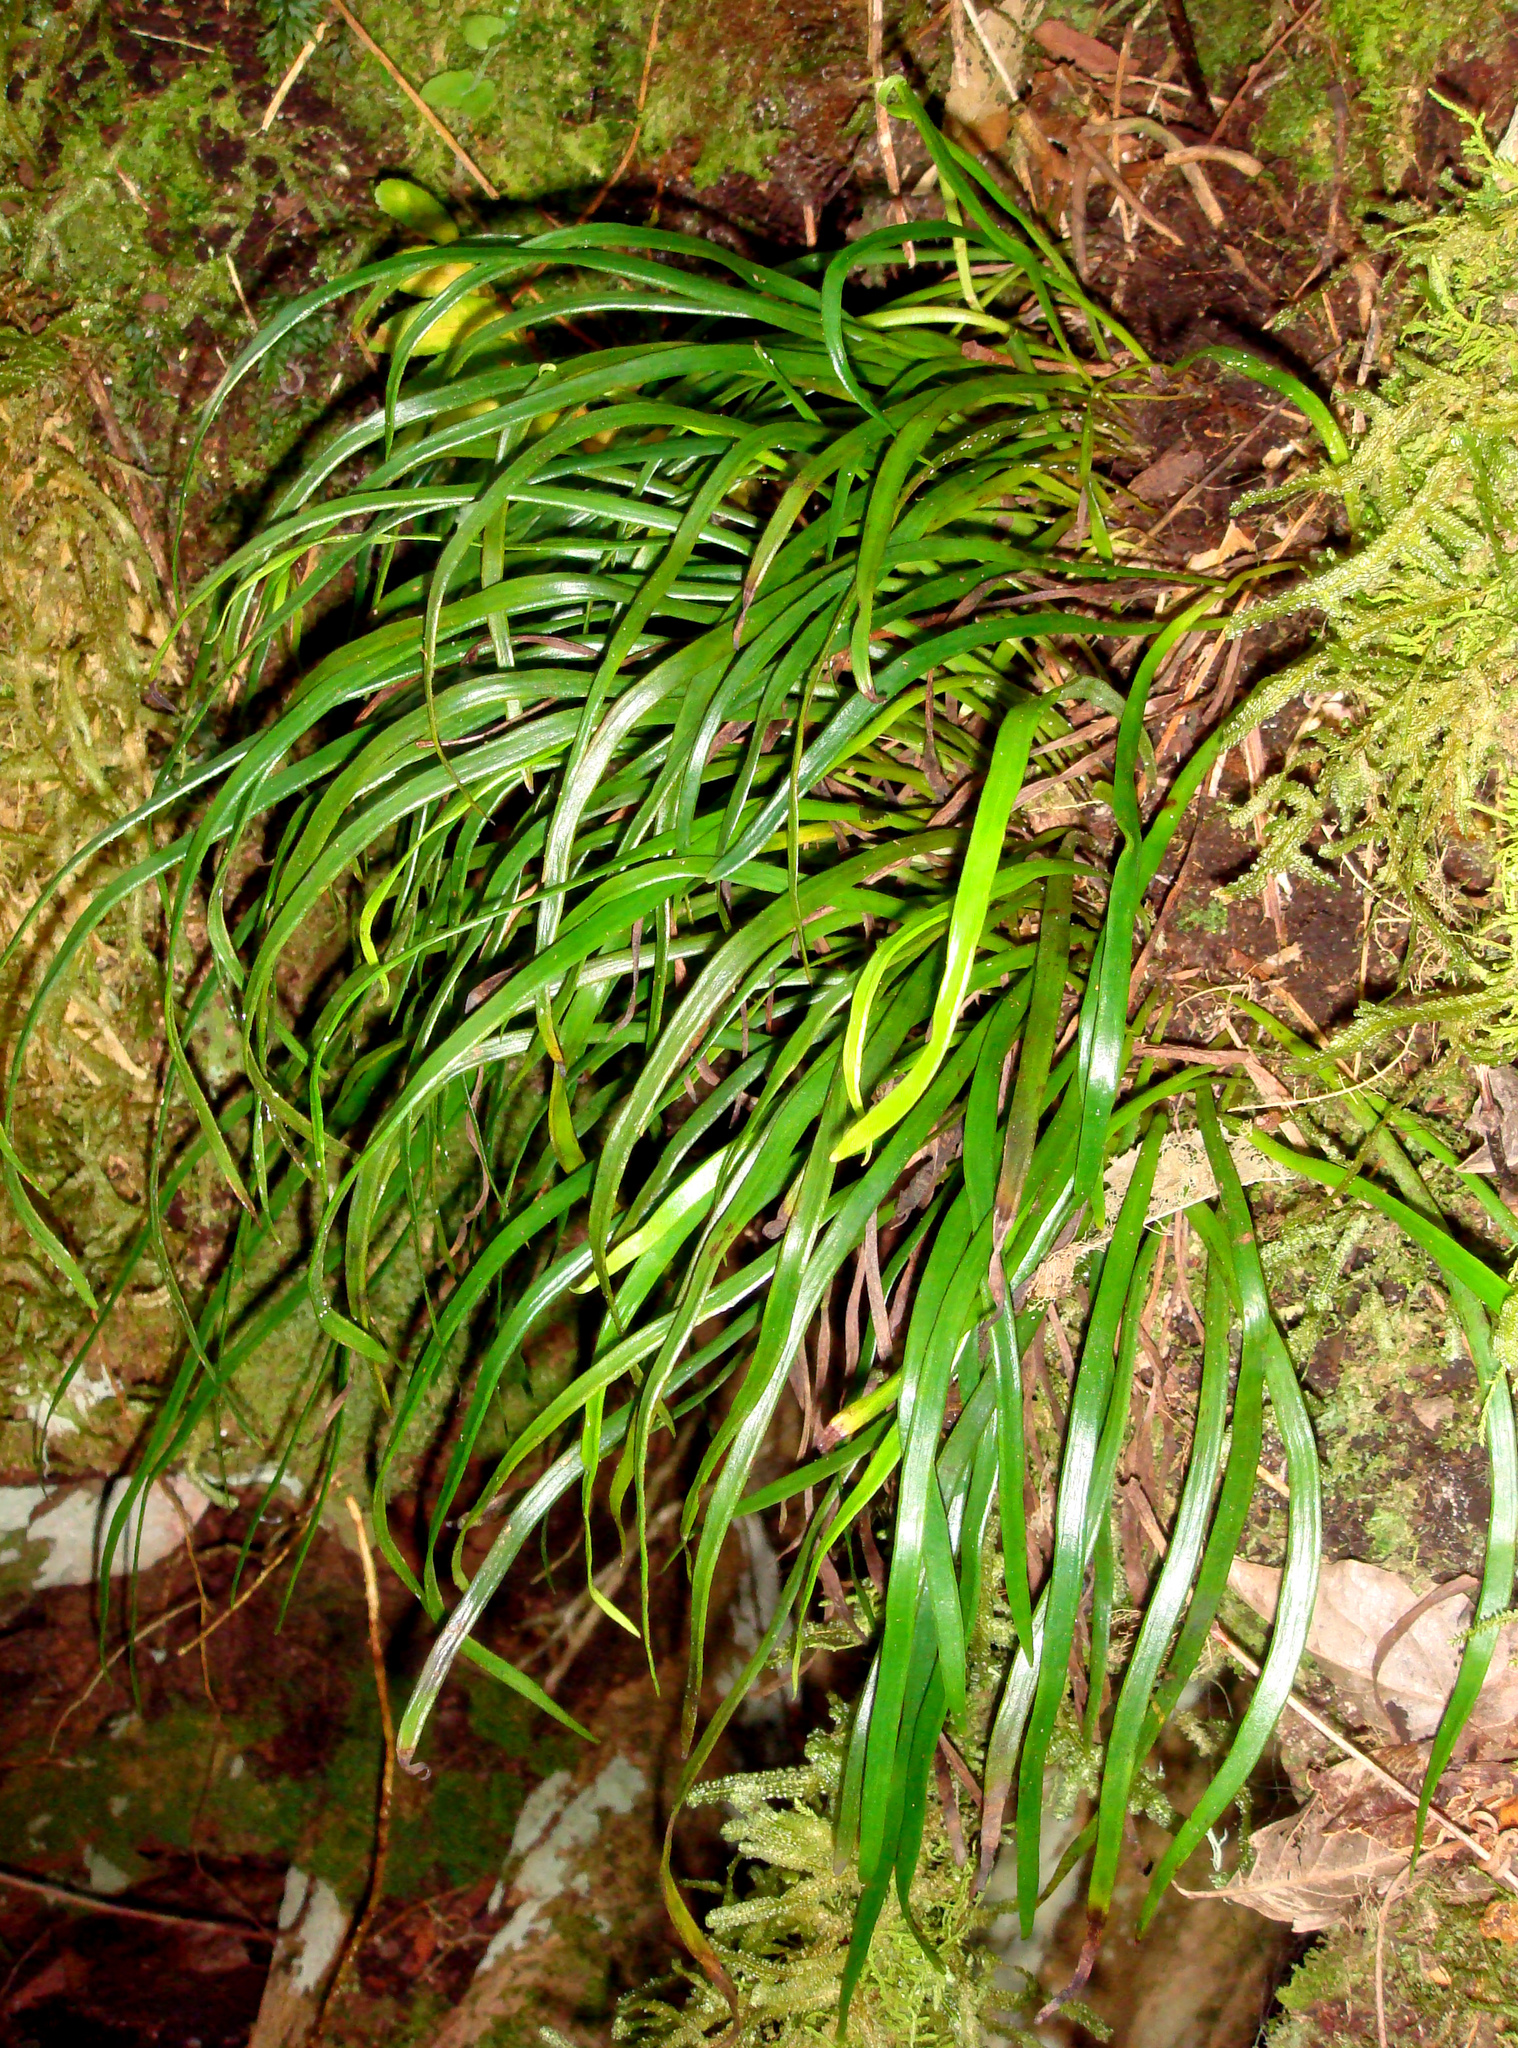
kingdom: Plantae
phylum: Tracheophyta
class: Polypodiopsida
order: Polypodiales
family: Pteridaceae
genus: Haplopteris
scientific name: Haplopteris elongata
